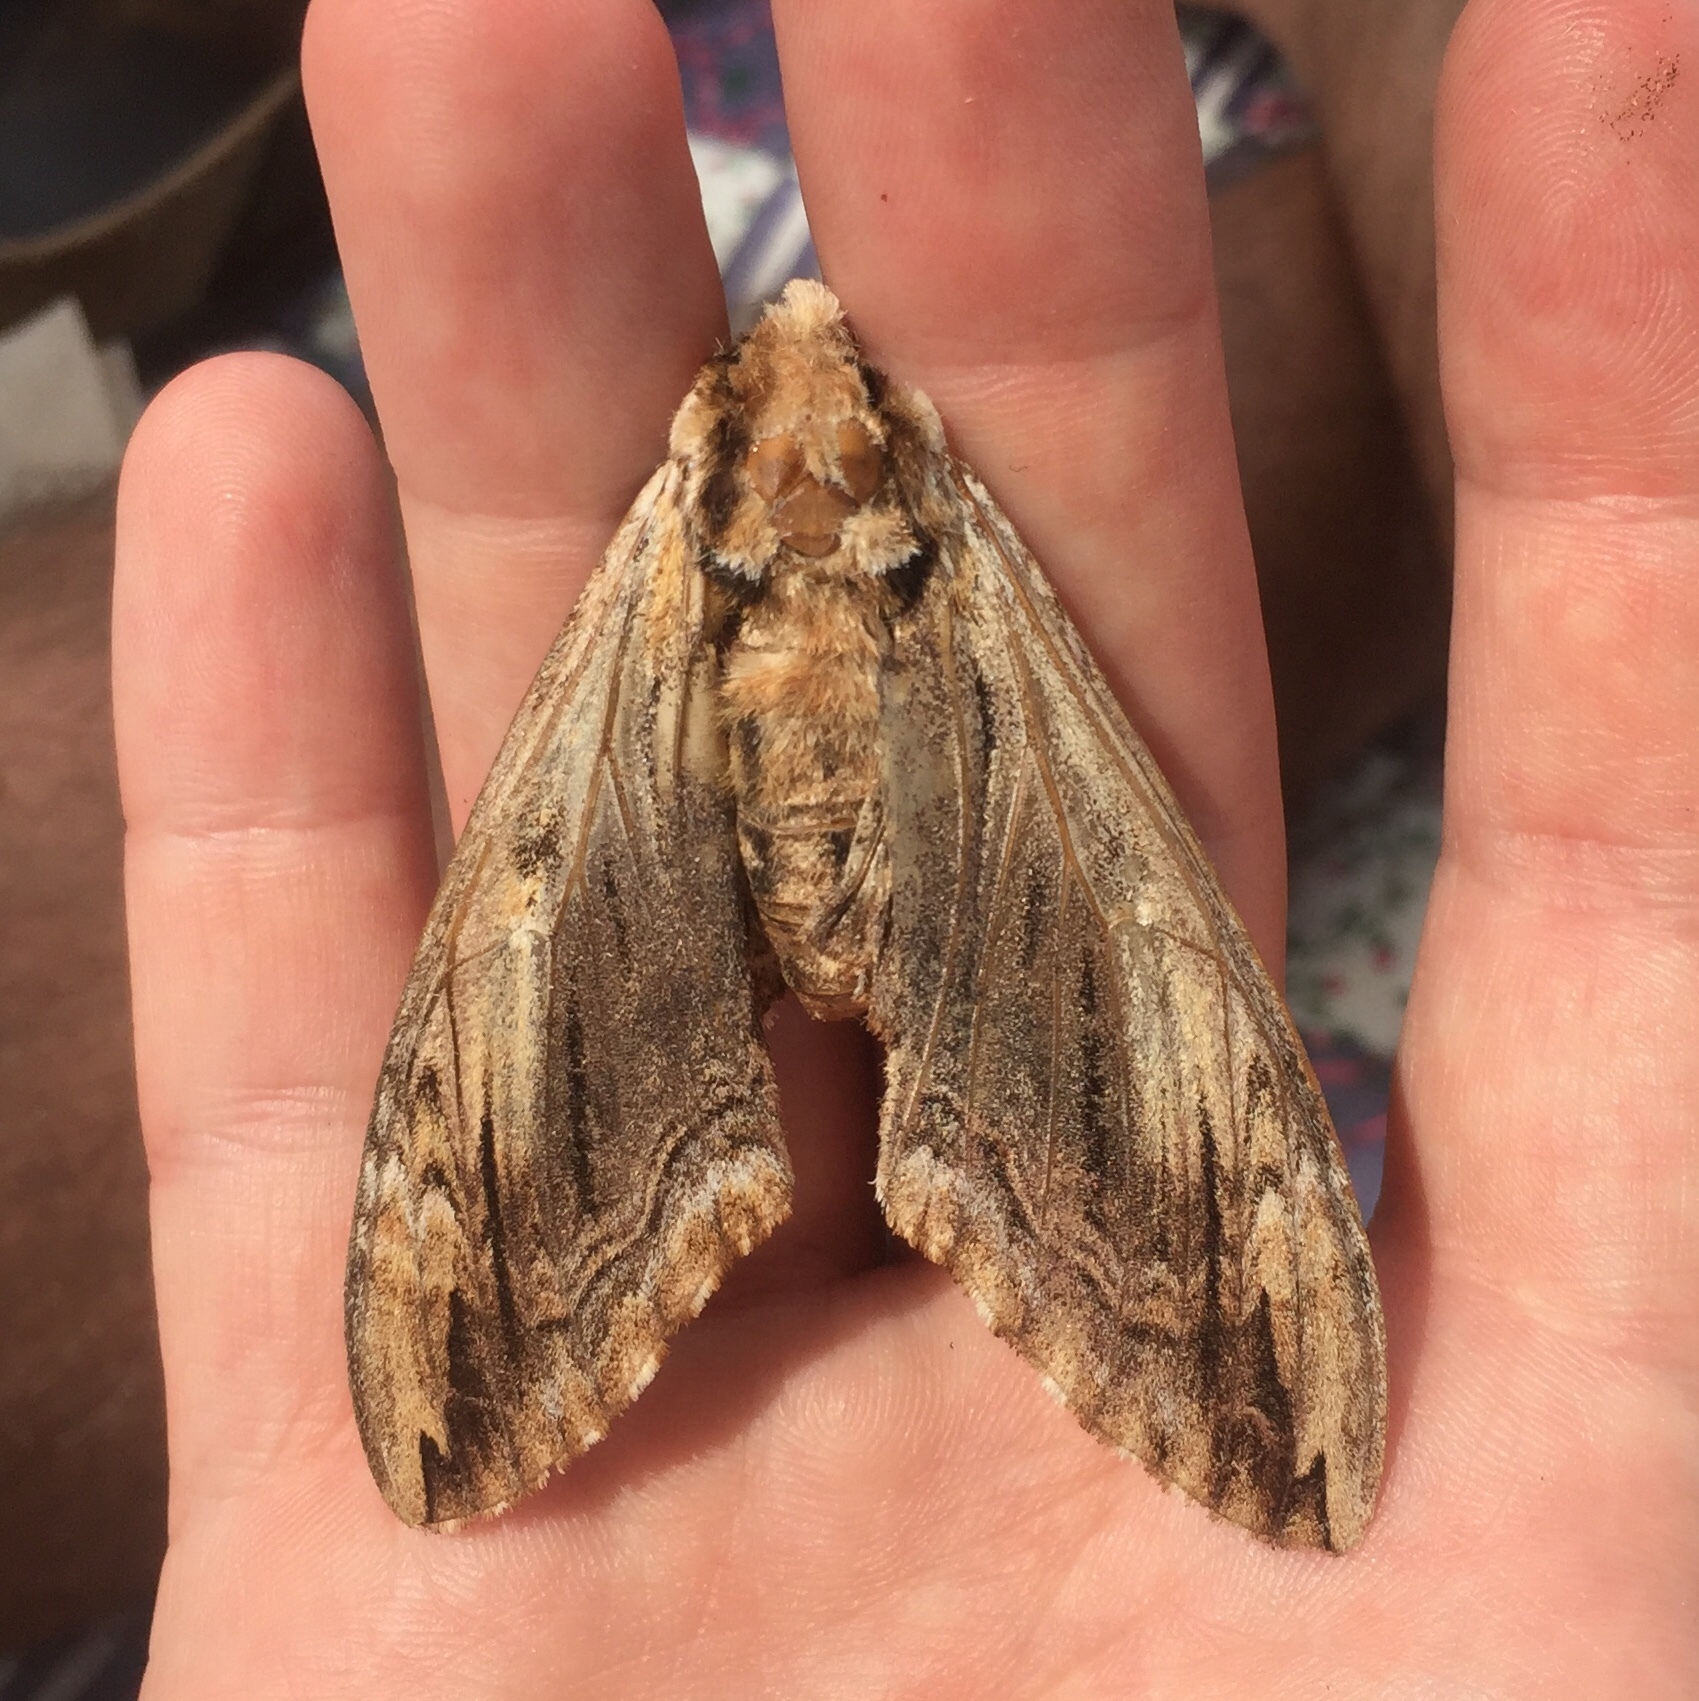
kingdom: Animalia
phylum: Arthropoda
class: Insecta
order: Lepidoptera
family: Sphingidae
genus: Ceratomia
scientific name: Ceratomia amyntor
